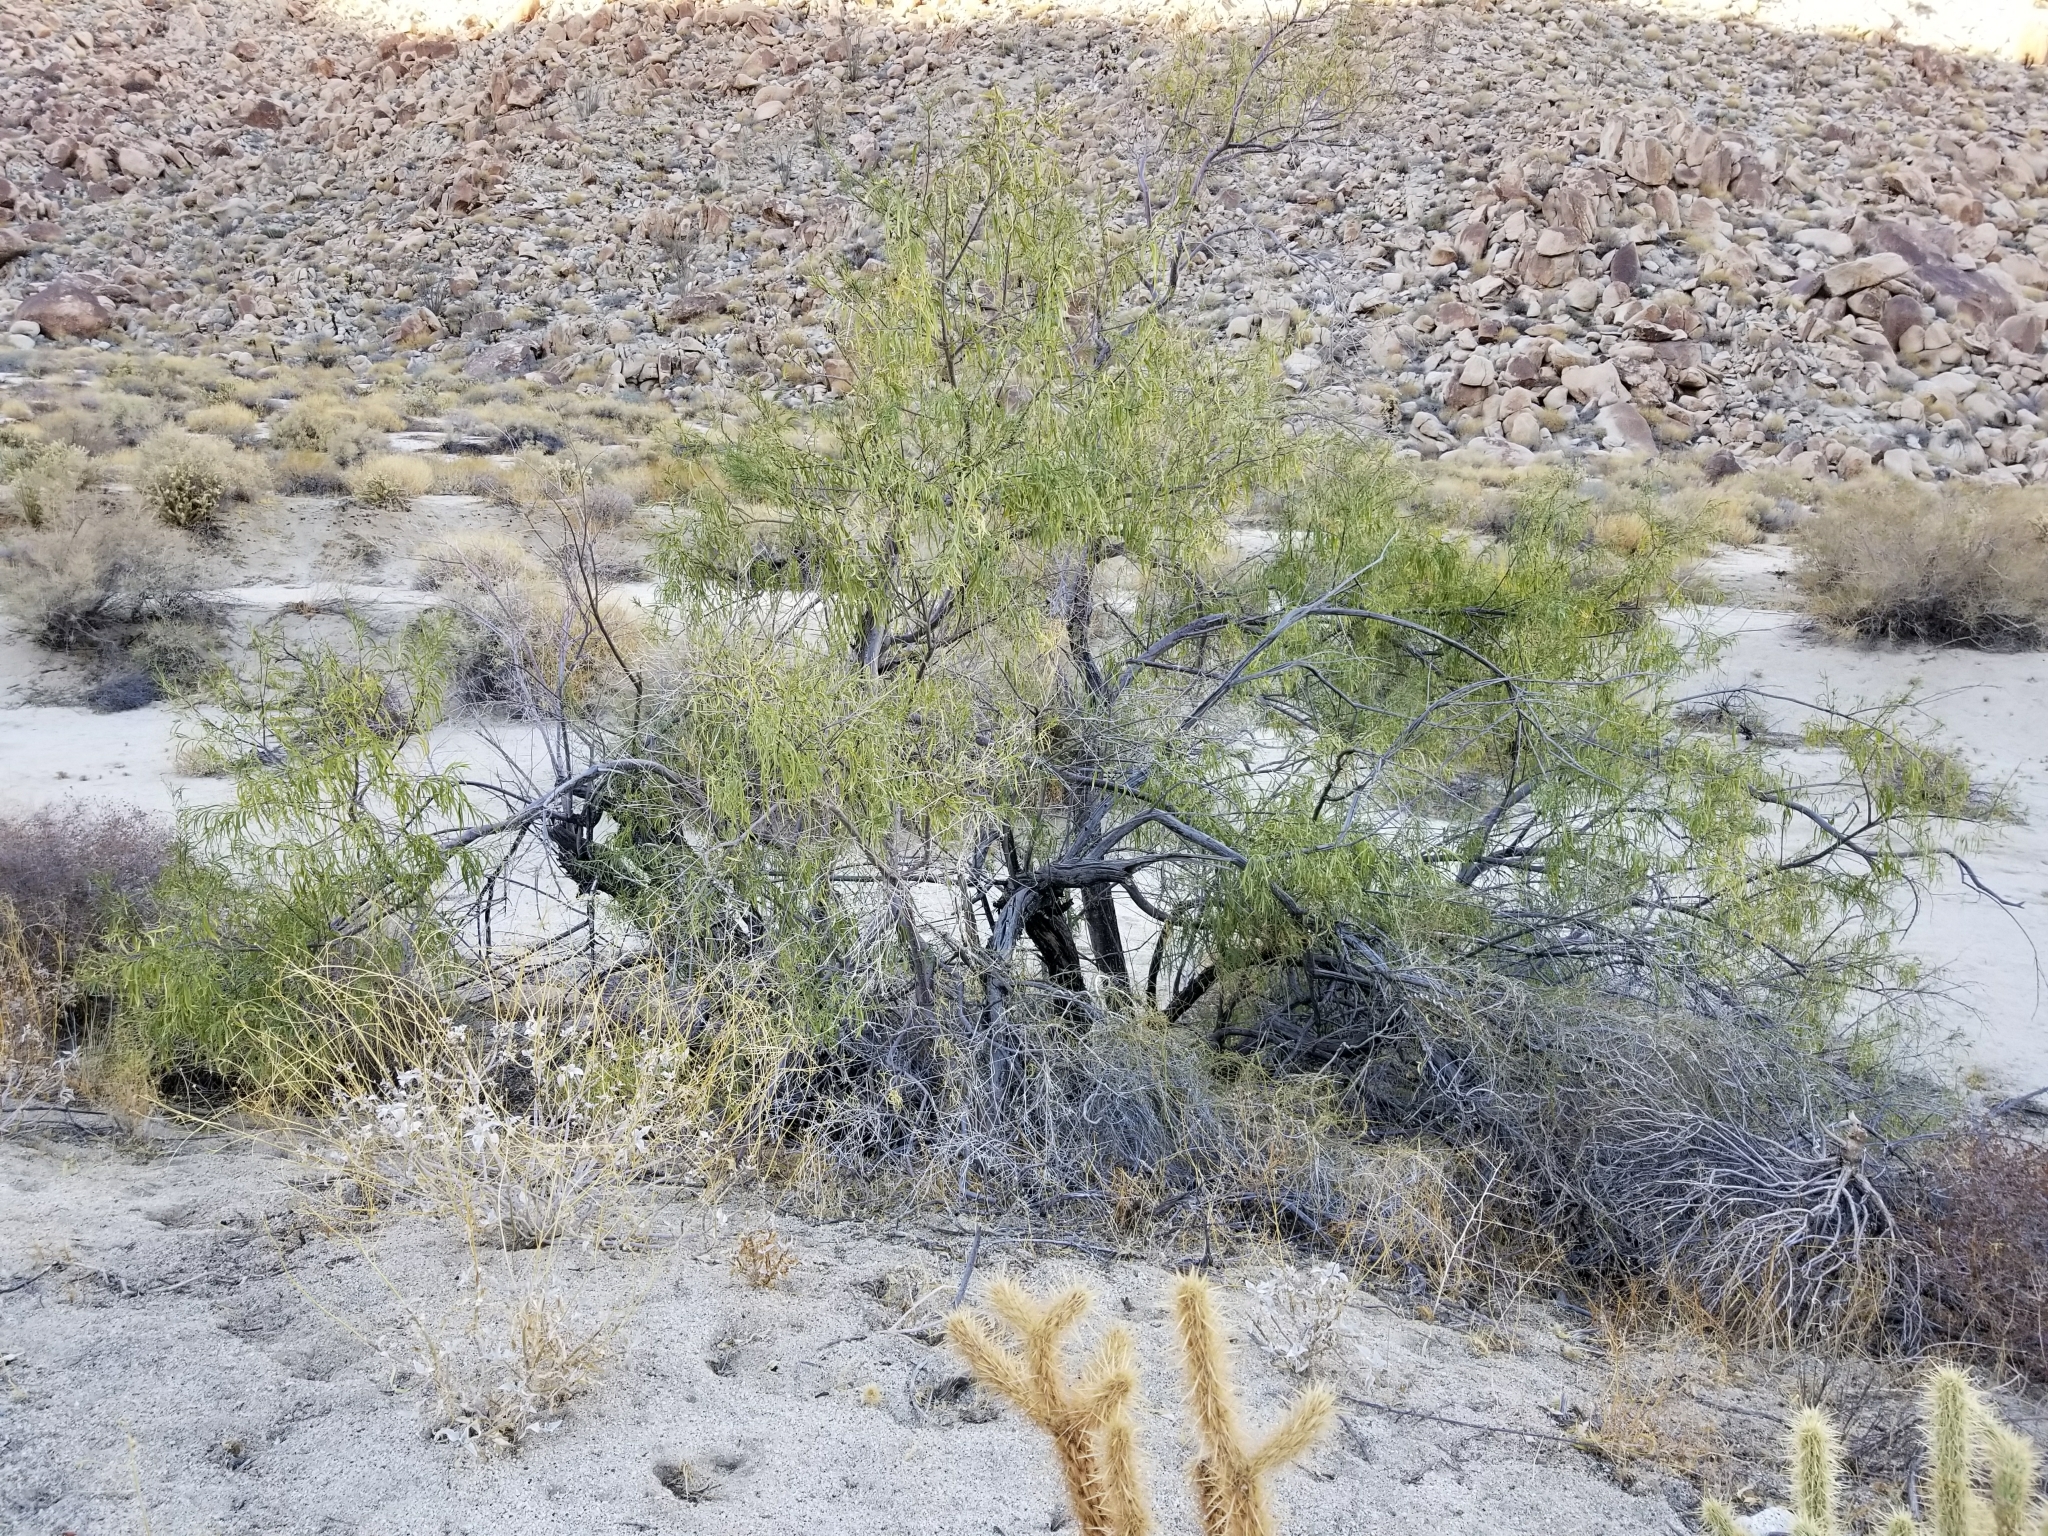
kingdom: Plantae
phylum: Tracheophyta
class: Magnoliopsida
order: Lamiales
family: Bignoniaceae
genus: Chilopsis
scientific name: Chilopsis linearis
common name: Desert-willow
